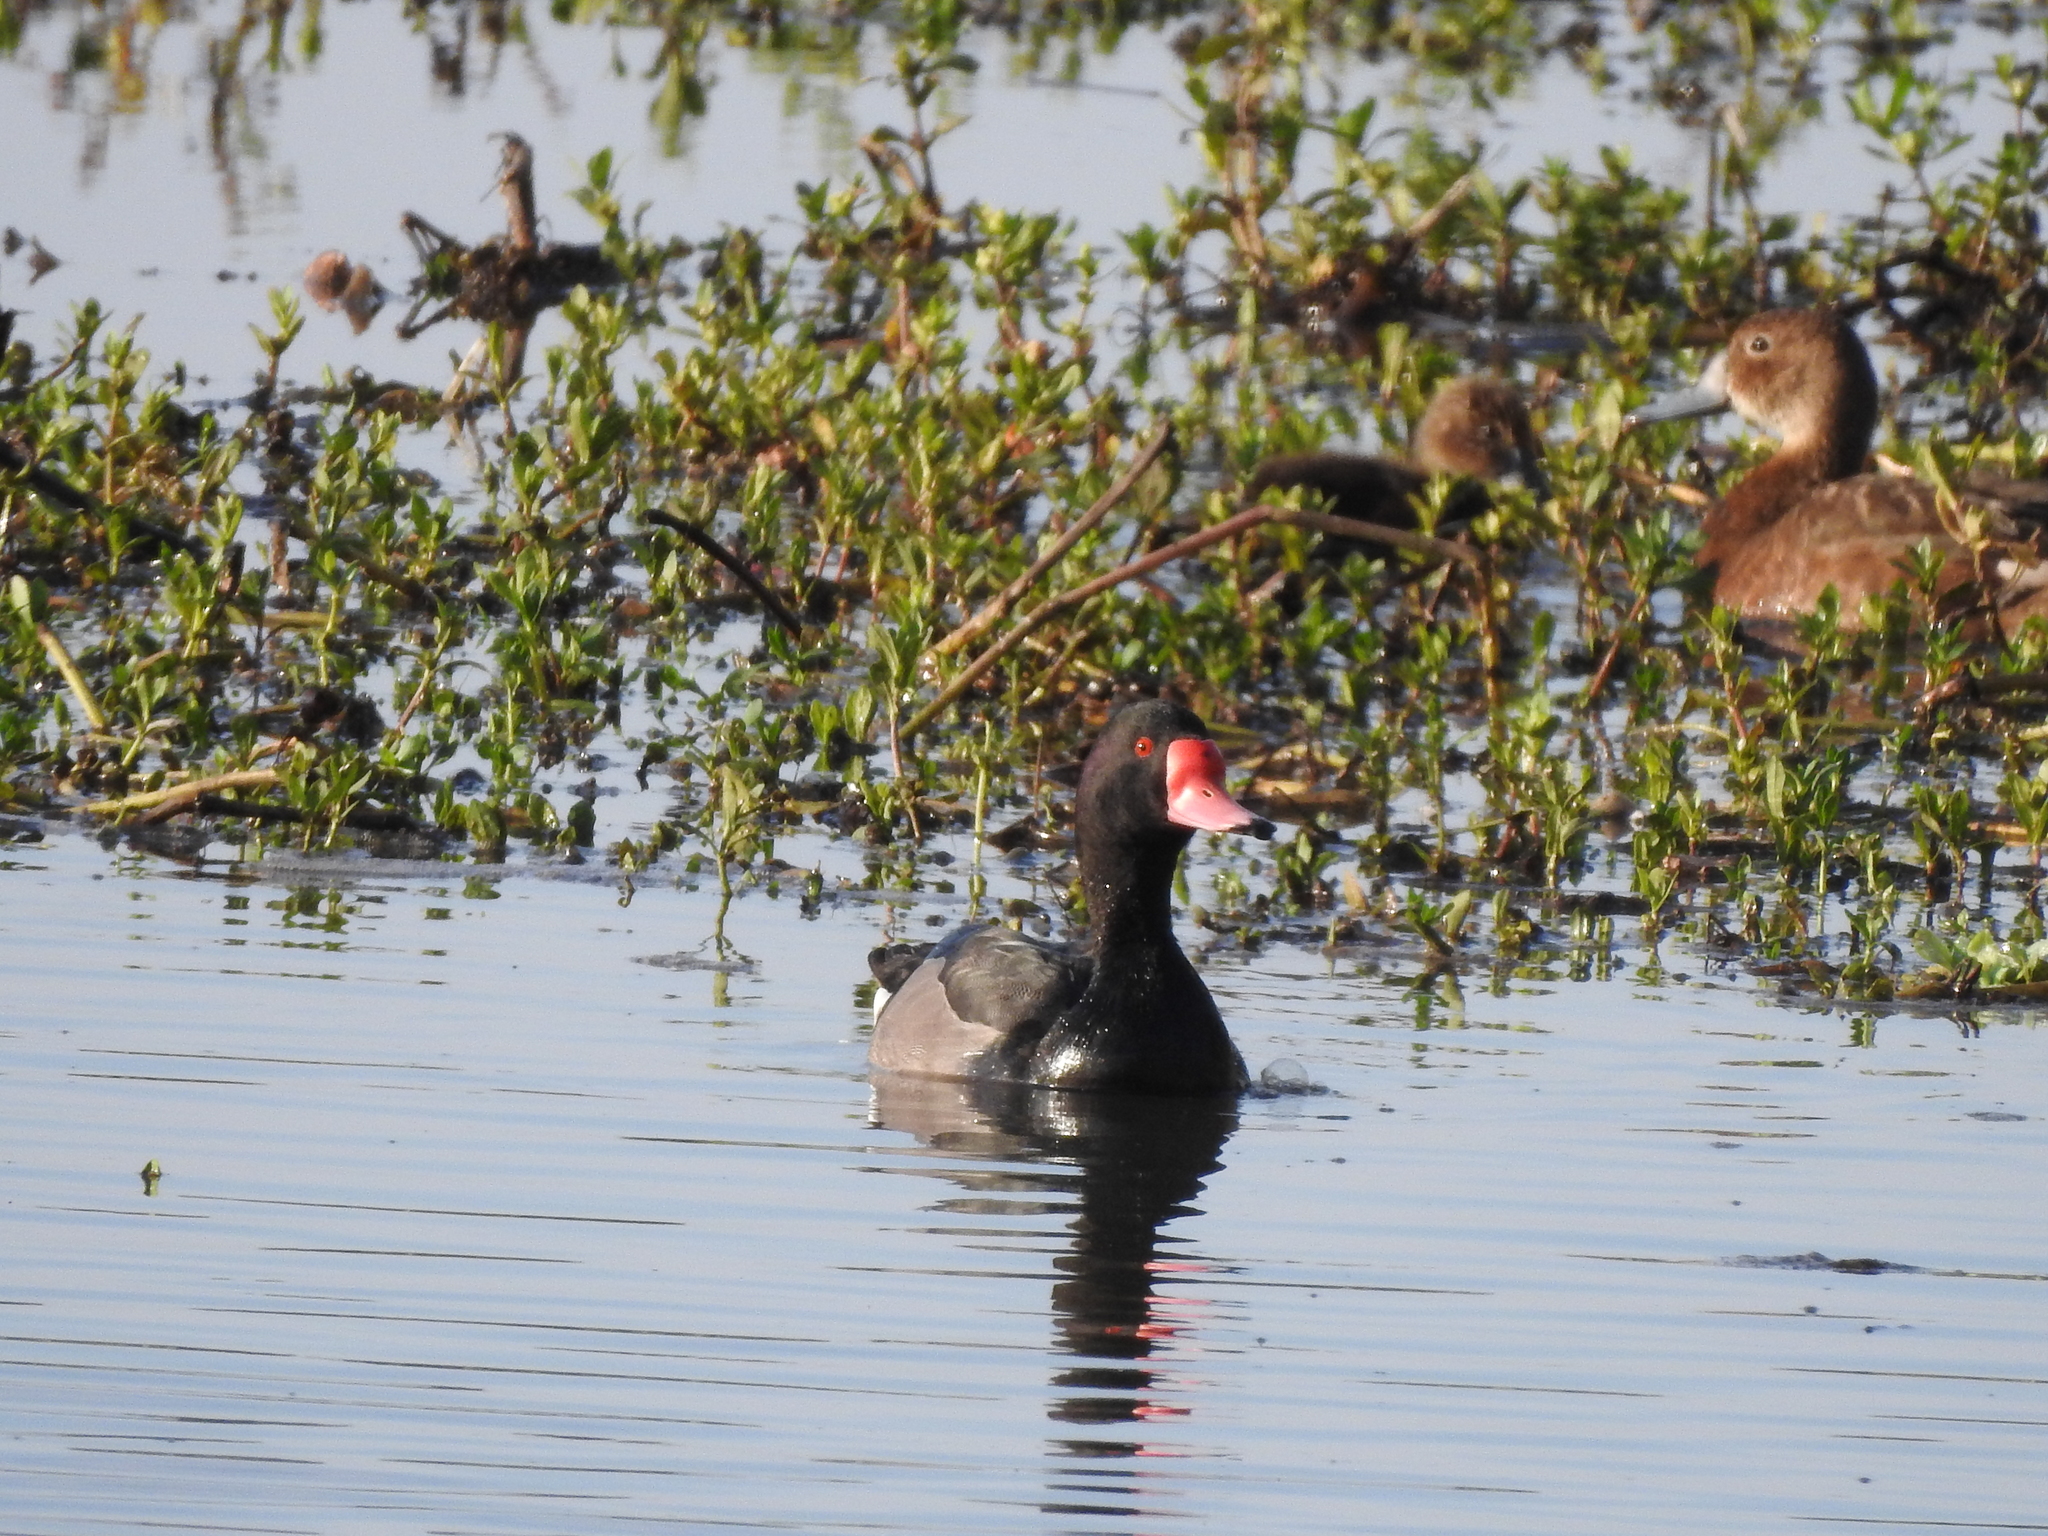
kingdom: Animalia
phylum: Chordata
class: Aves
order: Anseriformes
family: Anatidae
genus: Netta
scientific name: Netta peposaca
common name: Rosy-billed pochard
